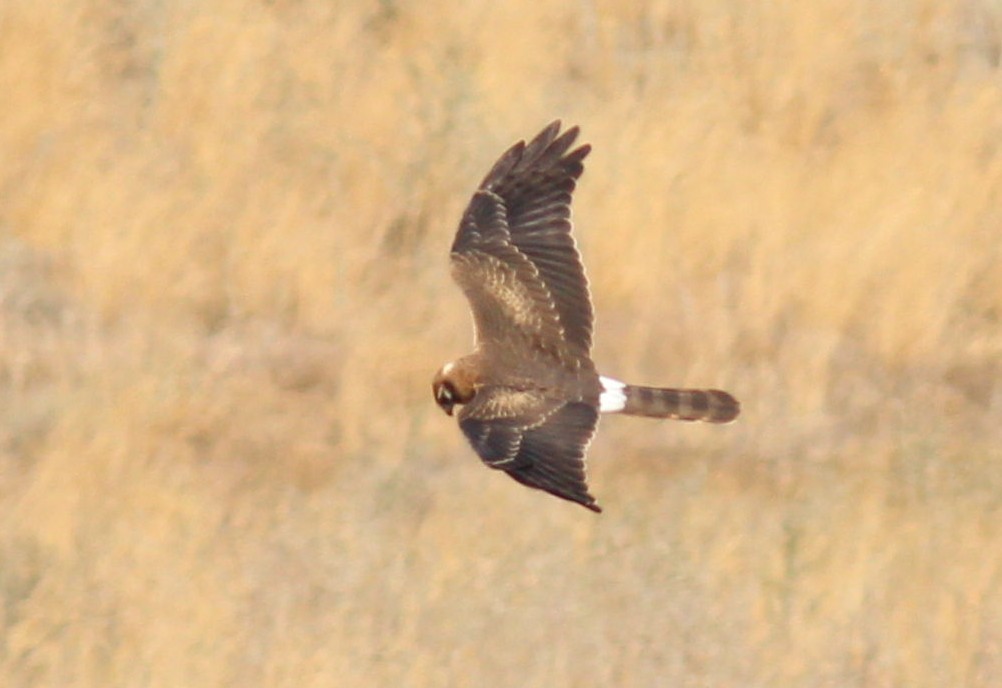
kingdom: Animalia
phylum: Chordata
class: Aves
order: Accipitriformes
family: Accipitridae
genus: Circus
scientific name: Circus pygargus
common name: Montagu's harrier
